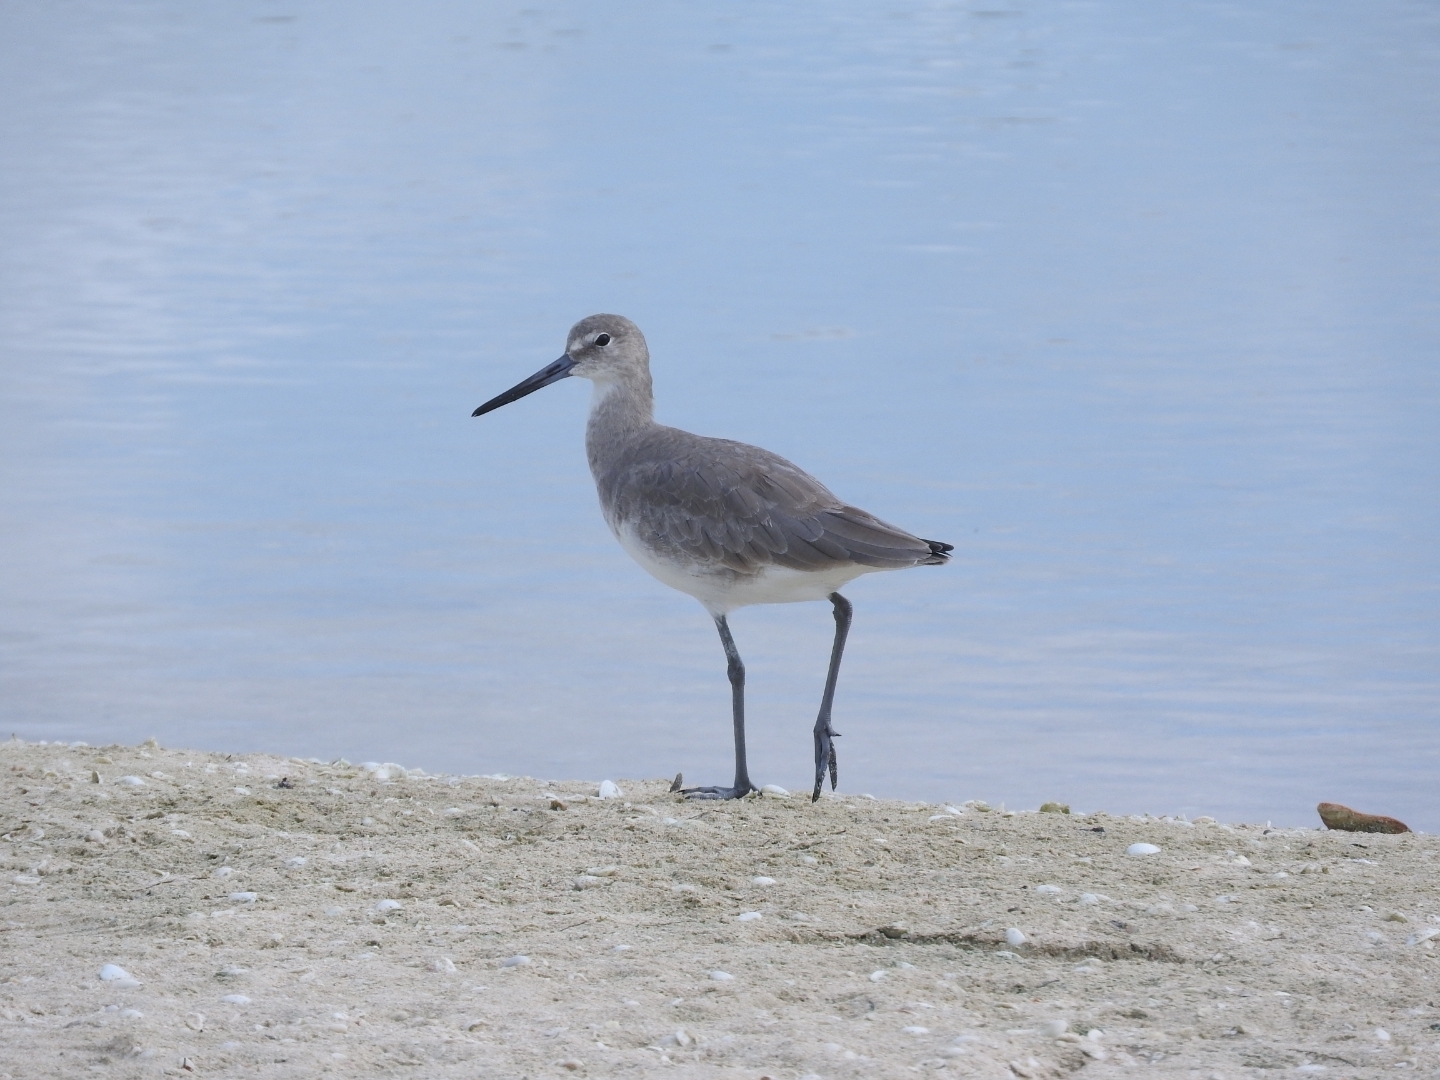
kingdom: Animalia
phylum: Chordata
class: Aves
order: Charadriiformes
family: Scolopacidae
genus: Tringa
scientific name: Tringa semipalmata
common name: Willet
